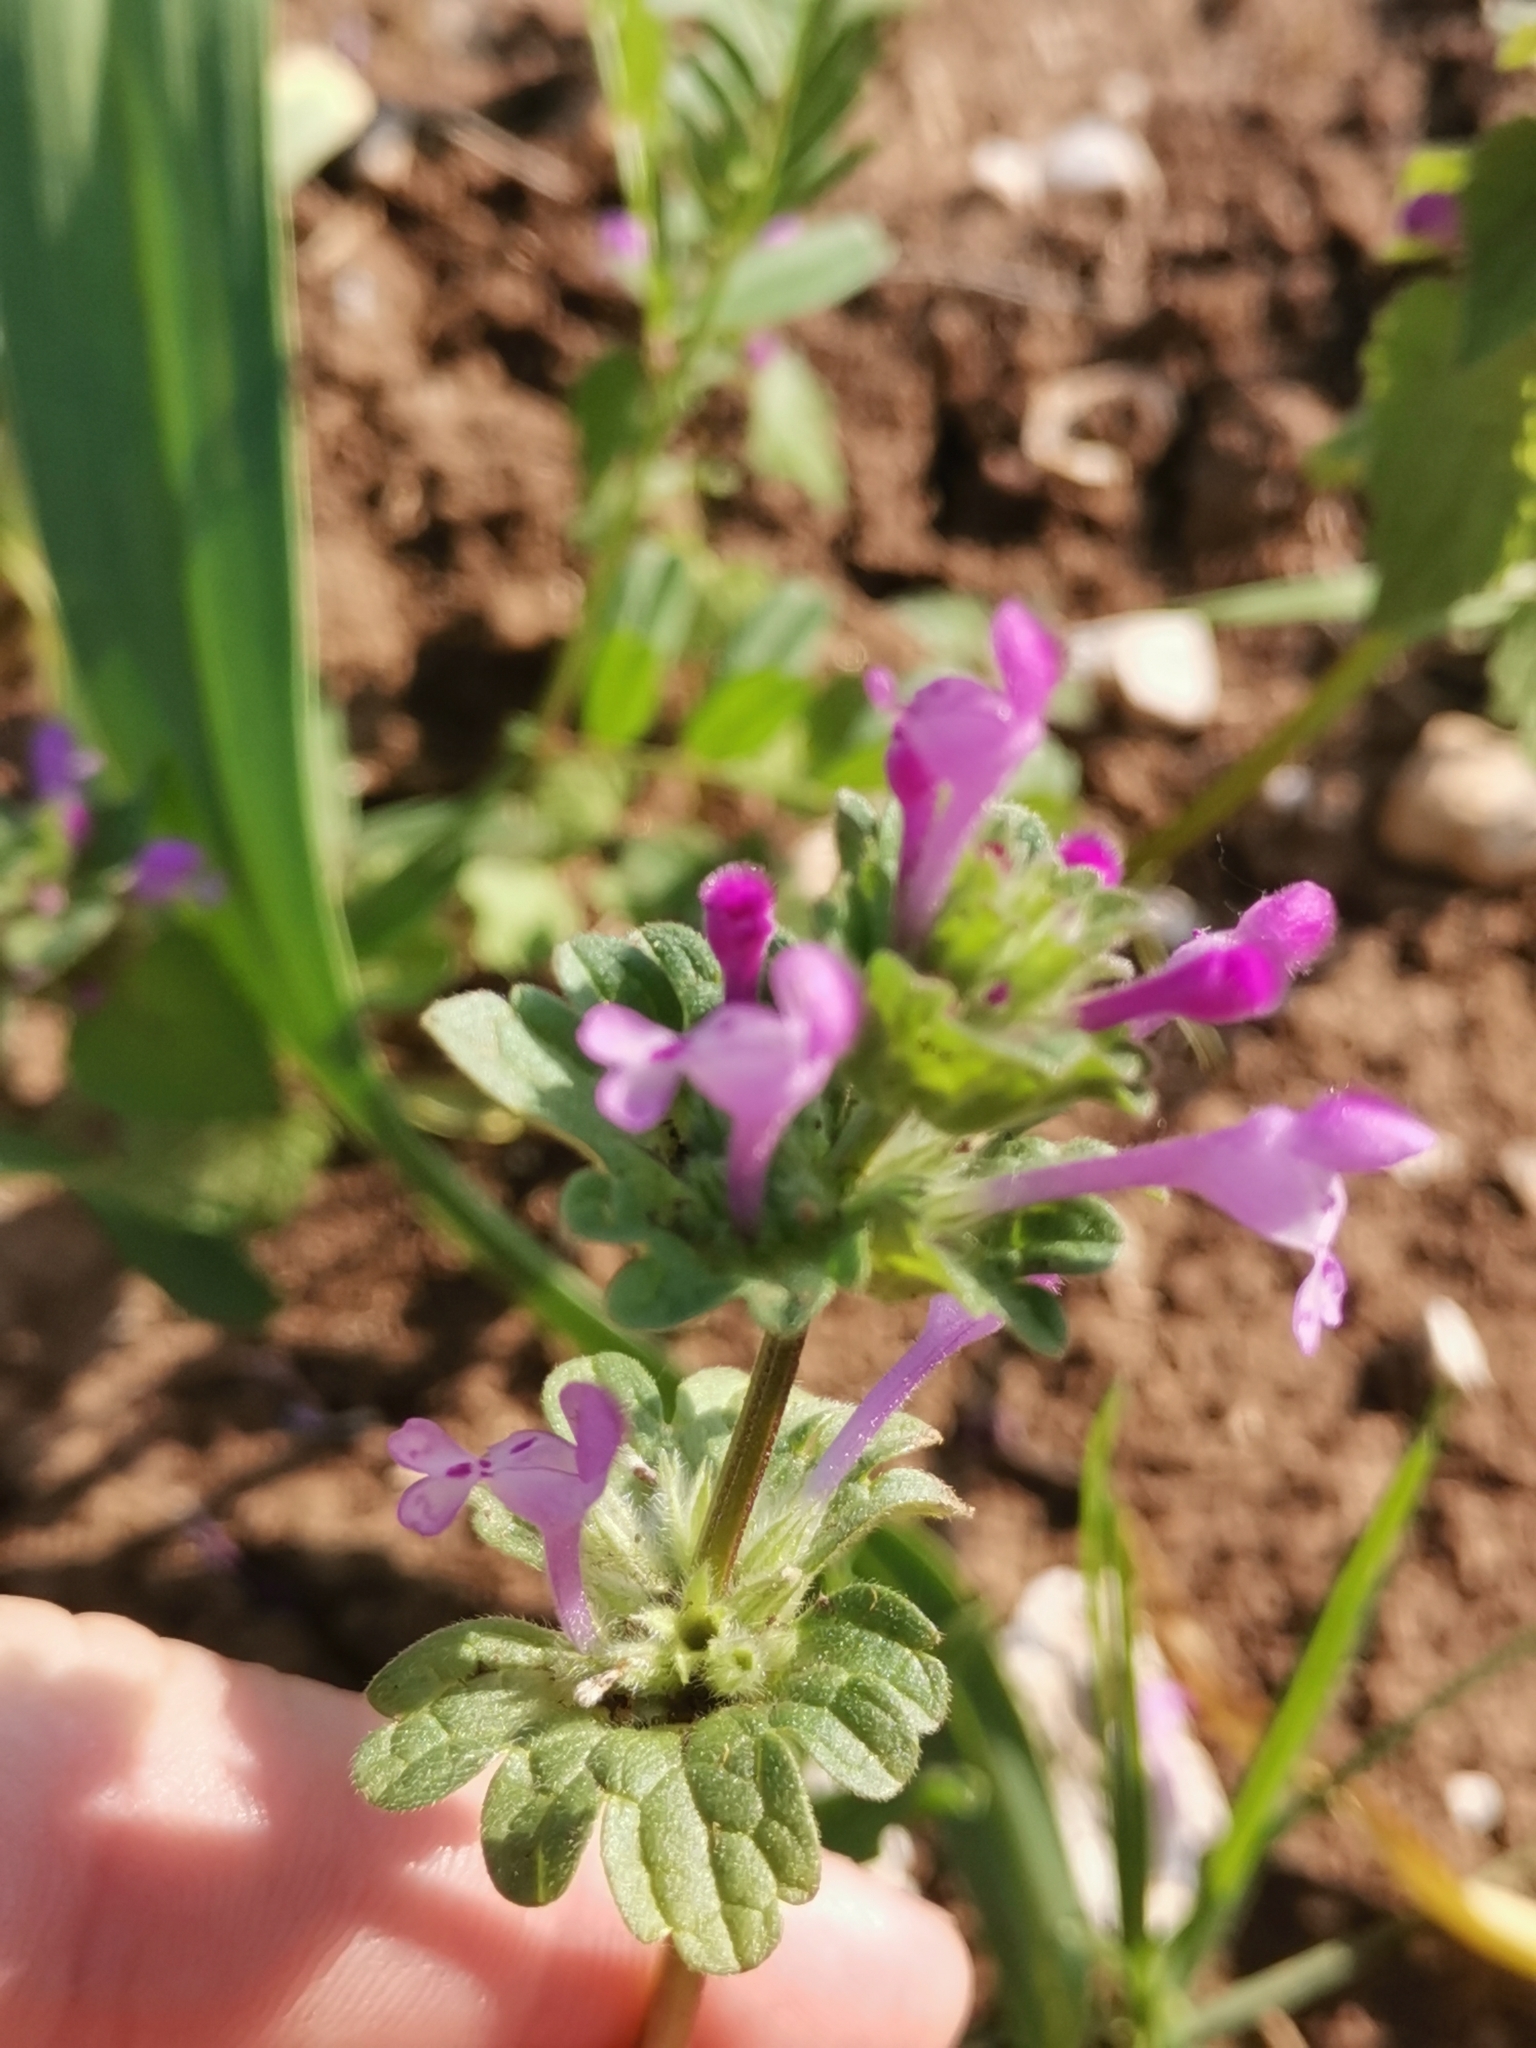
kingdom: Plantae
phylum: Tracheophyta
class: Magnoliopsida
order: Lamiales
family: Lamiaceae
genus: Lamium
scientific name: Lamium amplexicaule
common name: Henbit dead-nettle
